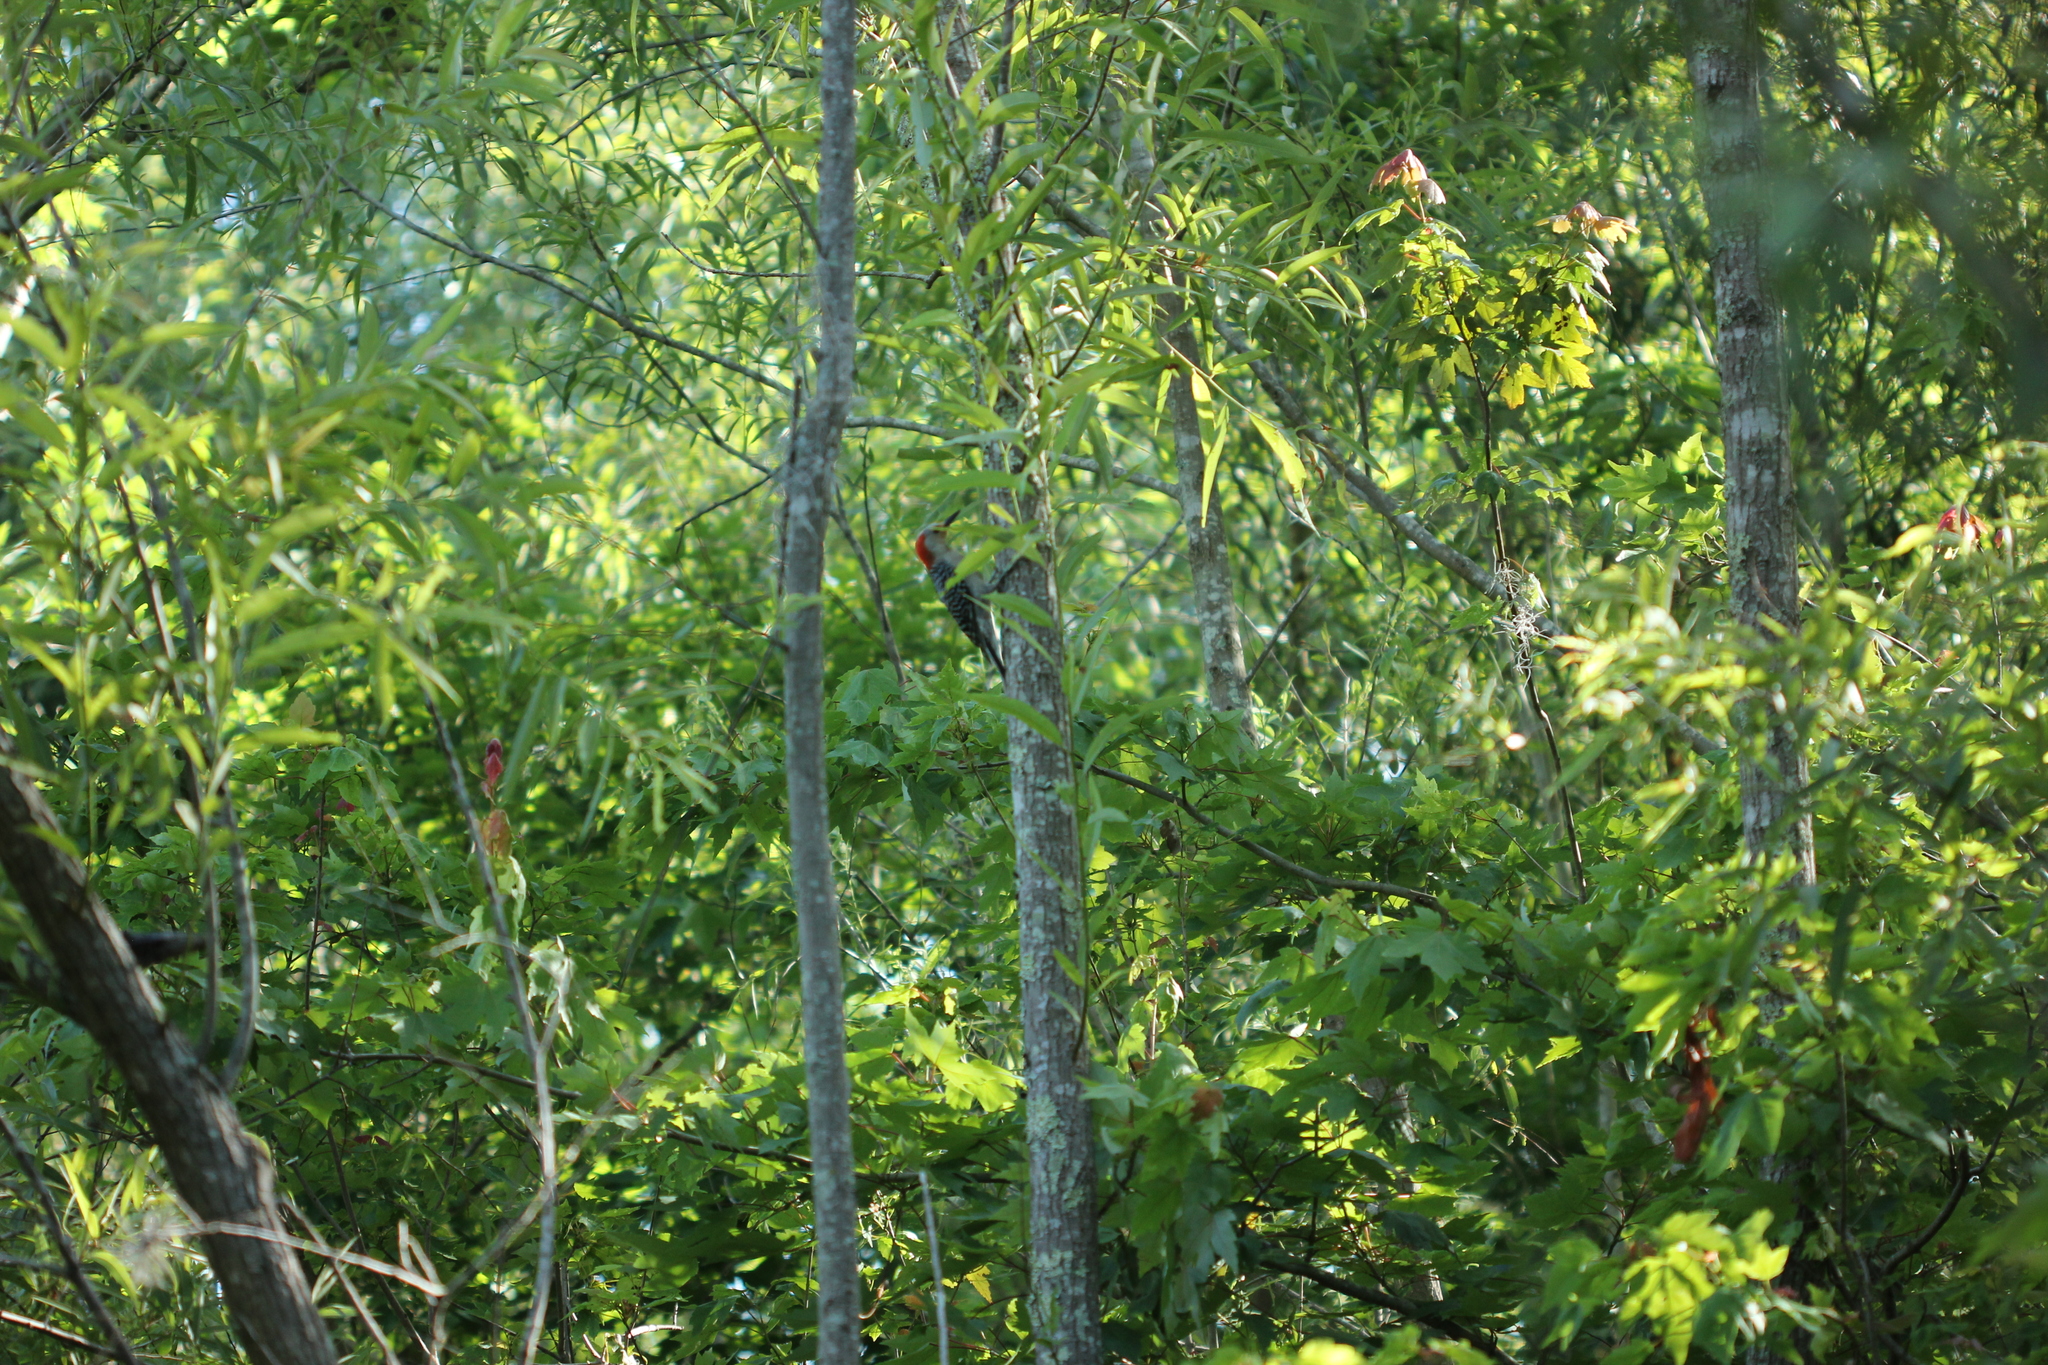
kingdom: Animalia
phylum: Chordata
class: Aves
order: Piciformes
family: Picidae
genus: Melanerpes
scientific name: Melanerpes carolinus
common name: Red-bellied woodpecker
